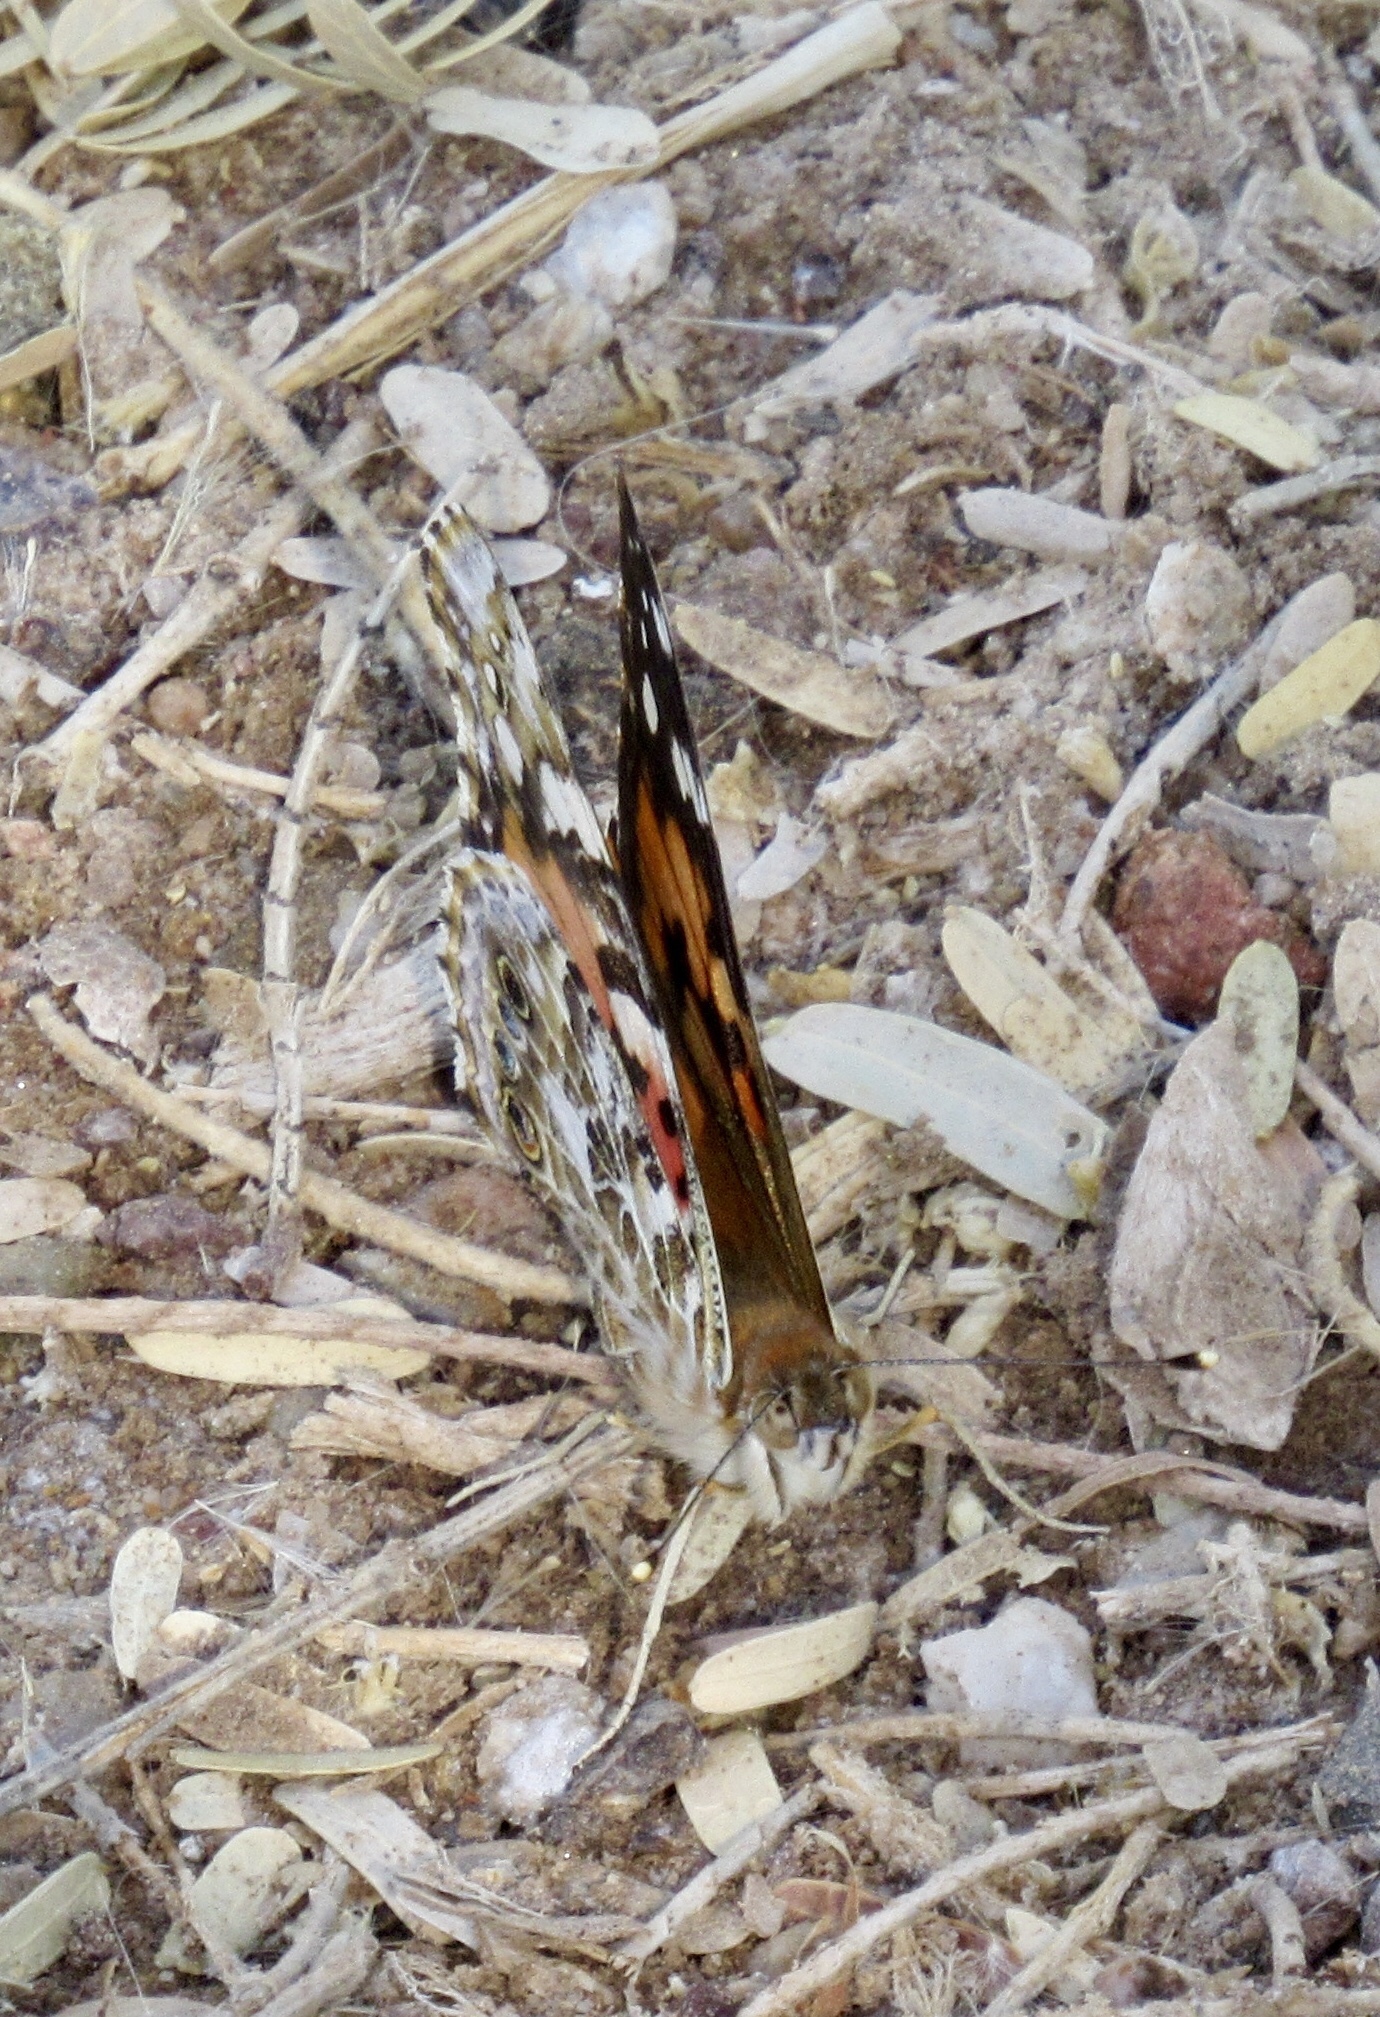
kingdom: Animalia
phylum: Arthropoda
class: Insecta
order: Lepidoptera
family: Nymphalidae
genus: Vanessa
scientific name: Vanessa cardui
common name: Painted lady
